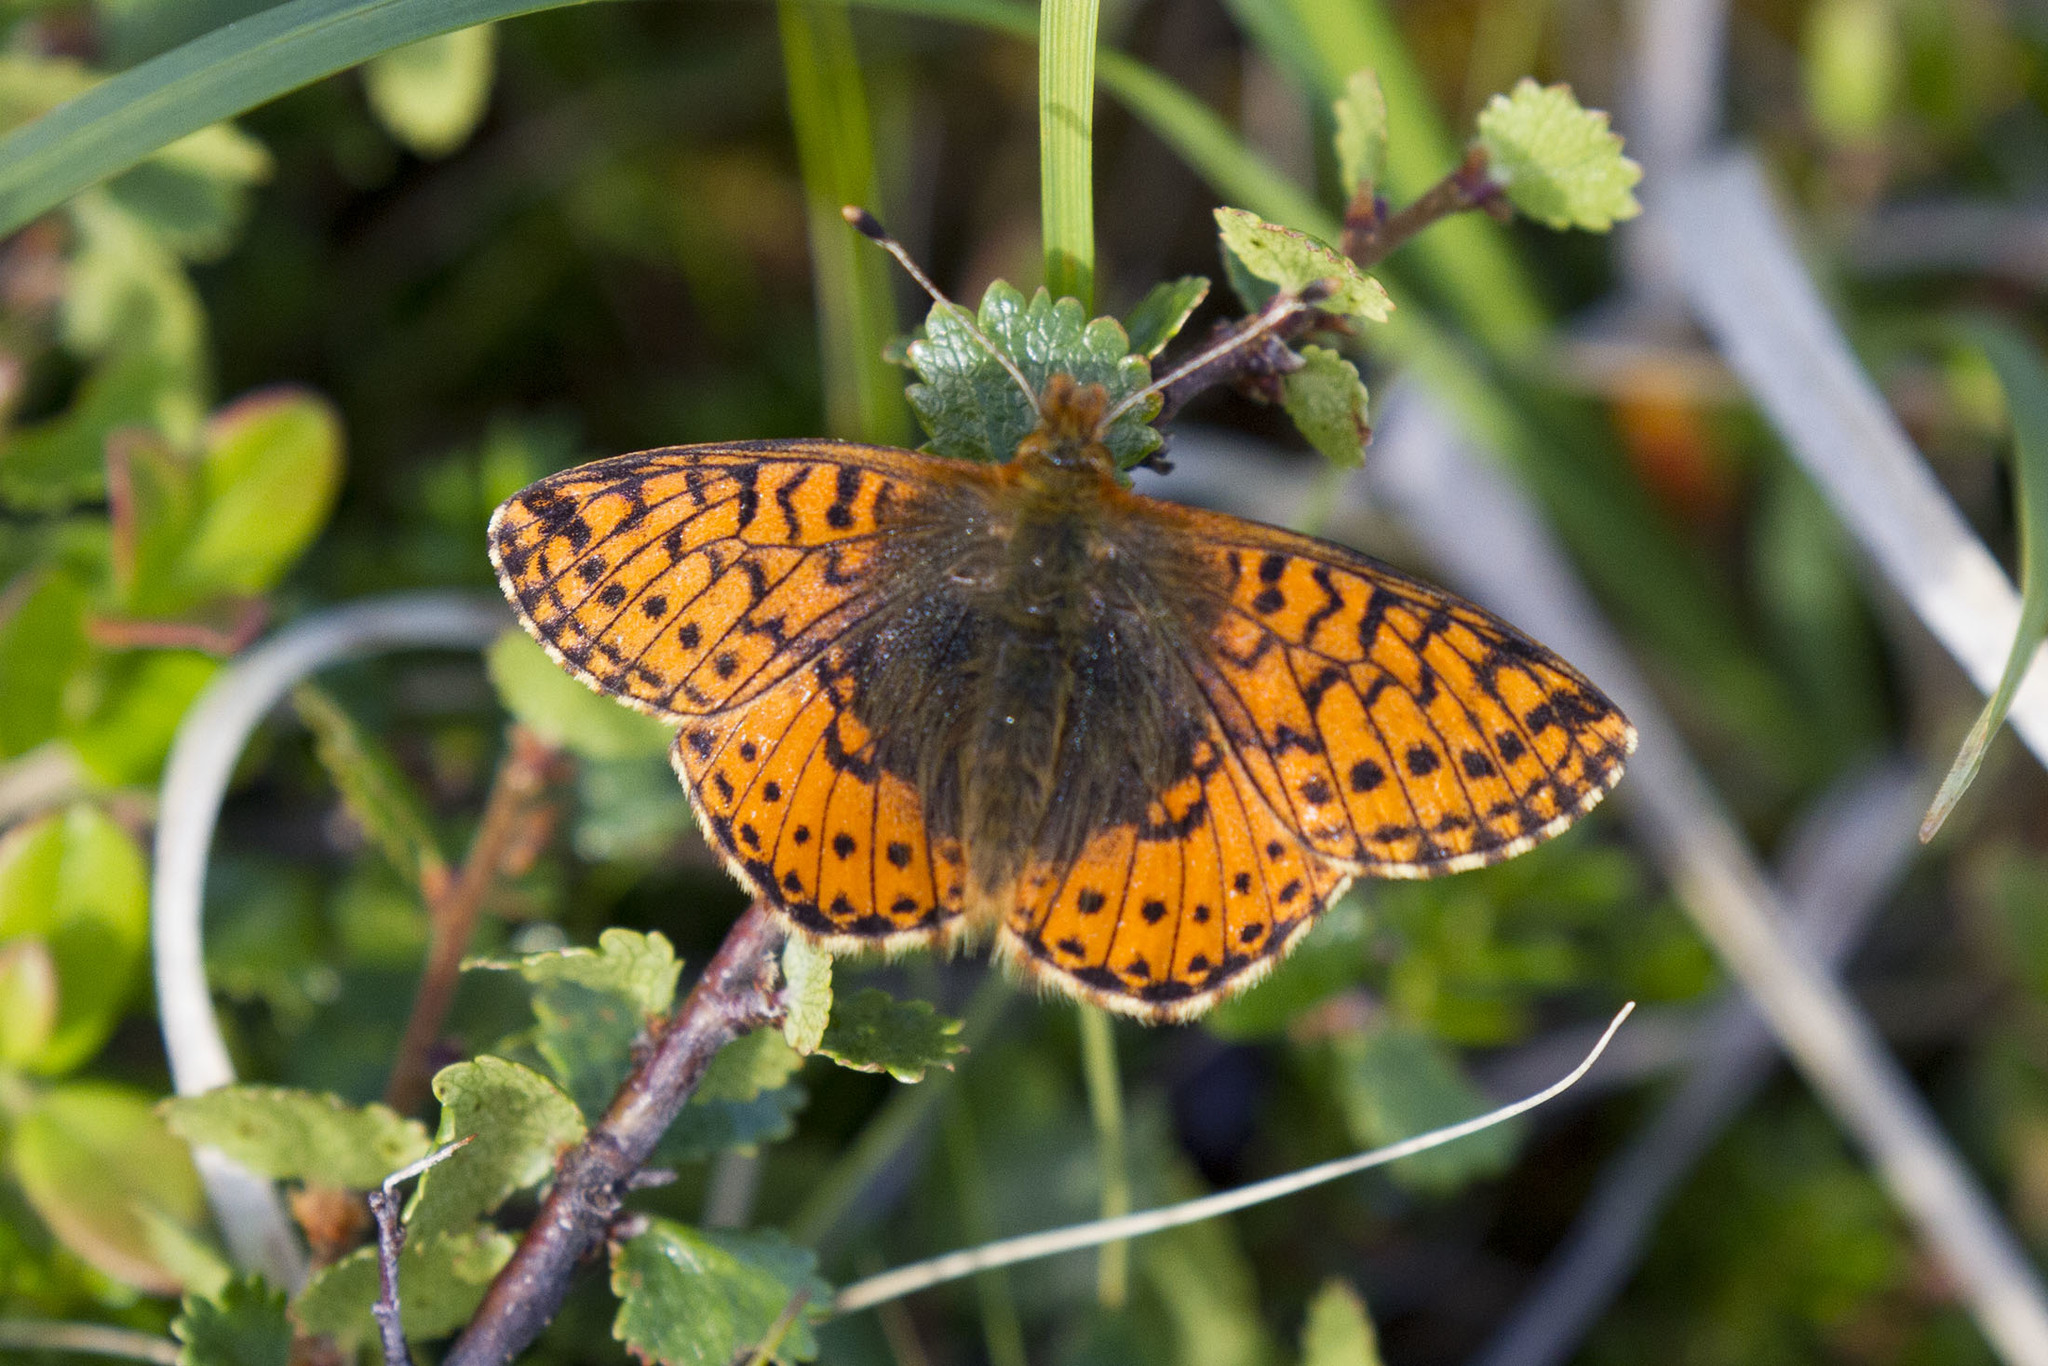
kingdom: Animalia
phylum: Arthropoda
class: Insecta
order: Lepidoptera
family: Nymphalidae
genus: Boloria
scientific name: Boloria aquilonaris
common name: Cranberry fritillary
